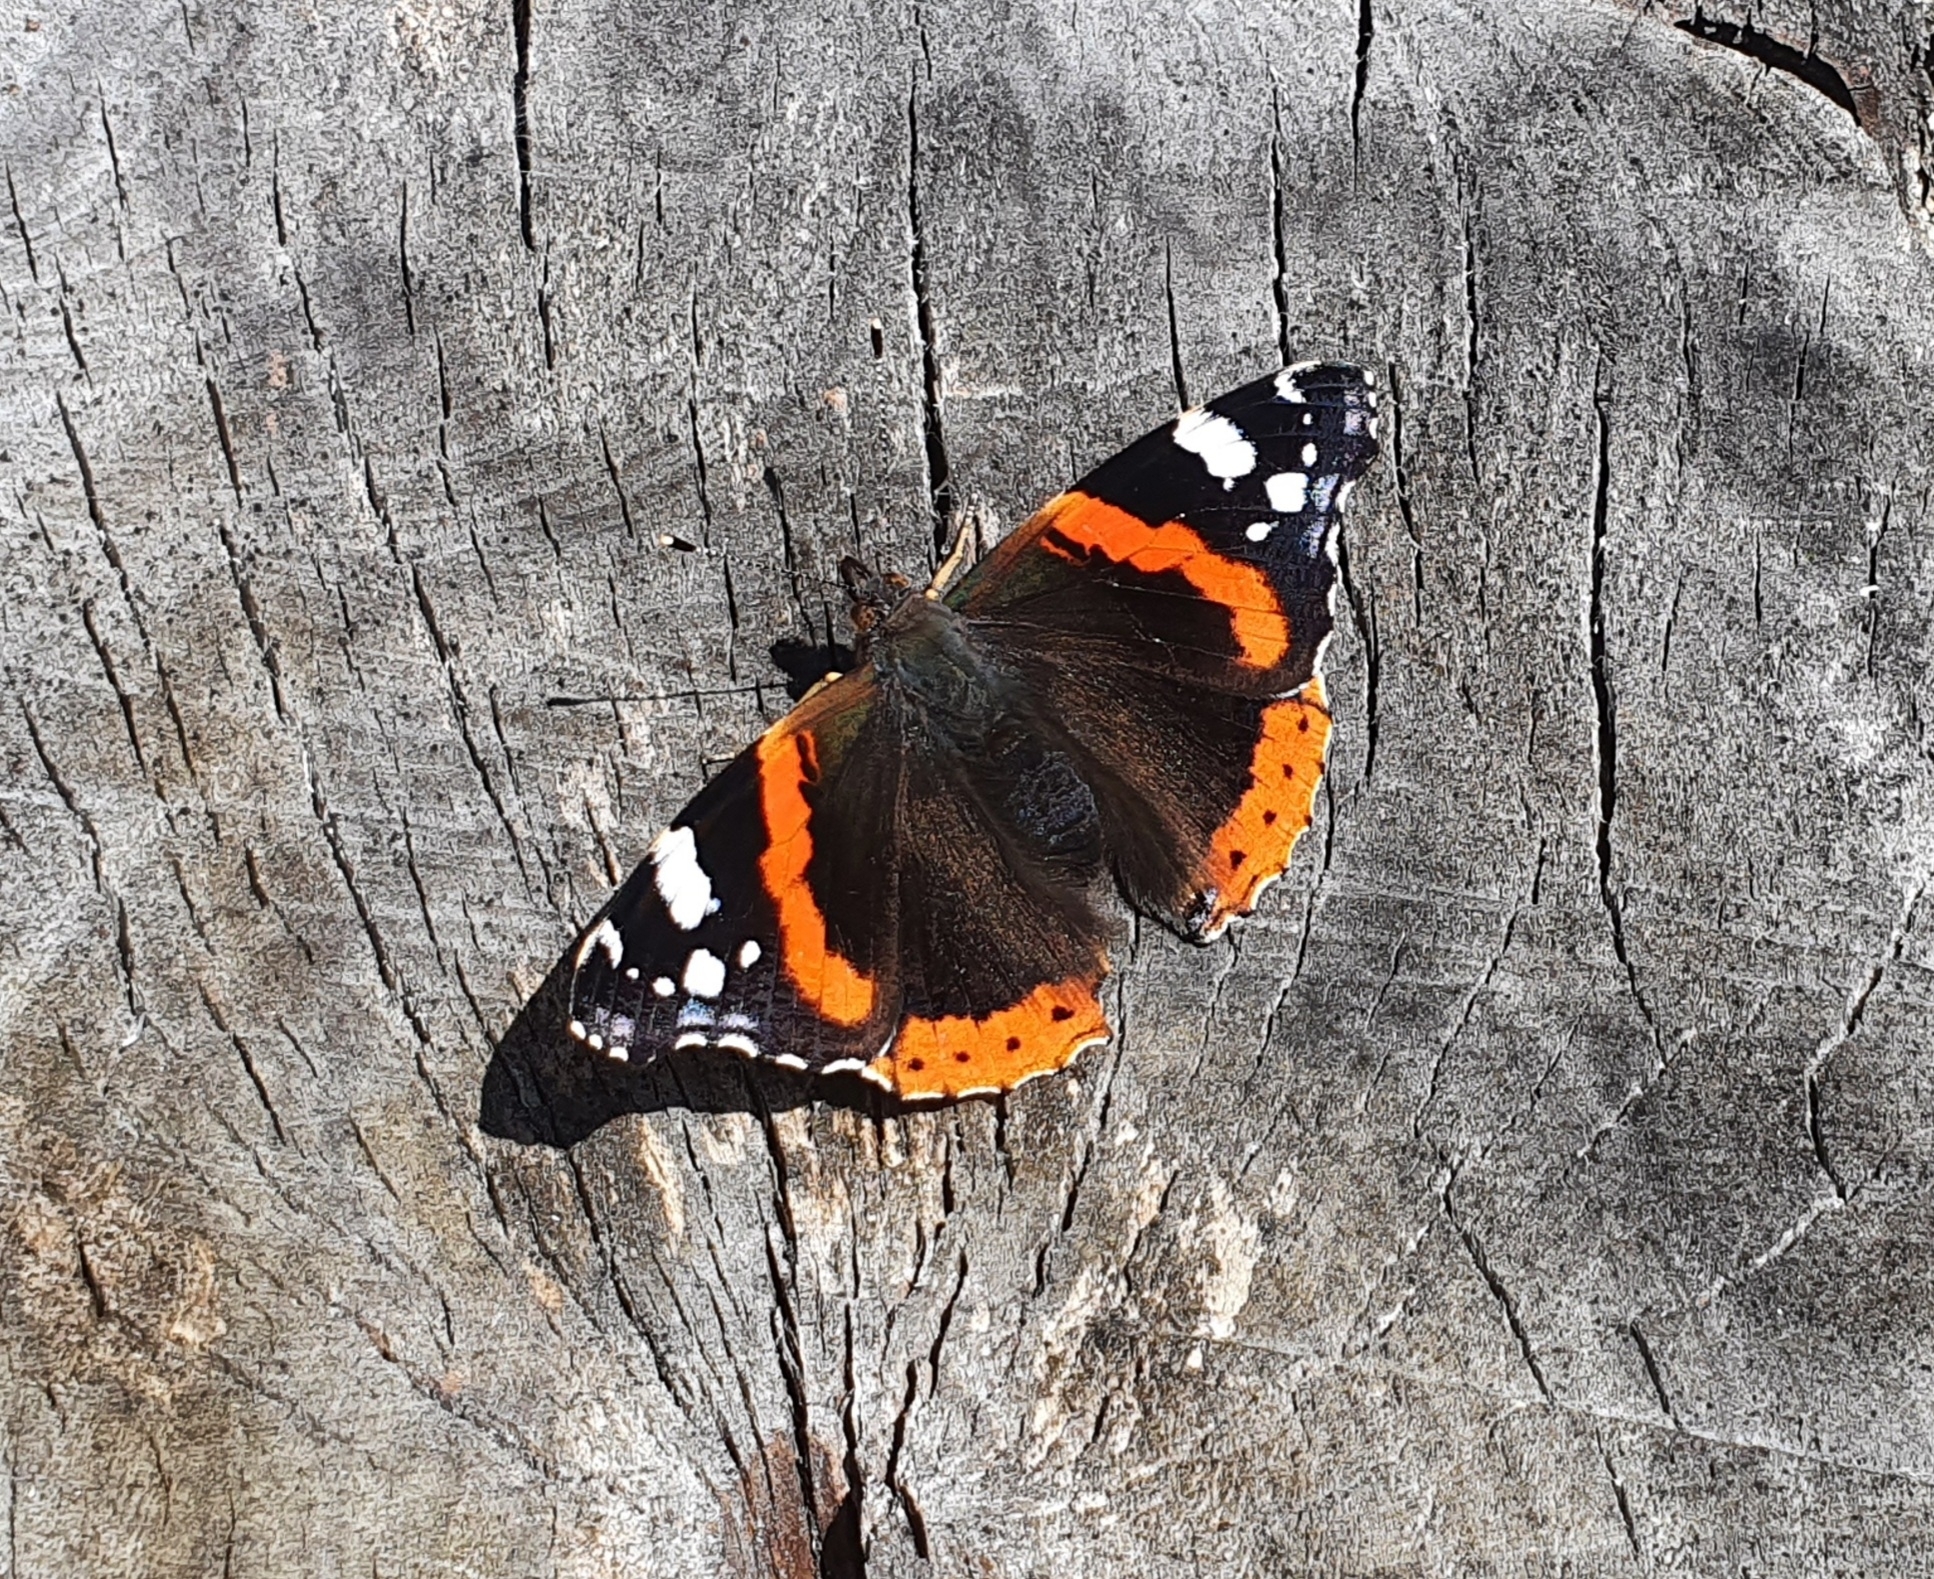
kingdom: Animalia
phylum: Arthropoda
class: Insecta
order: Lepidoptera
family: Nymphalidae
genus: Vanessa
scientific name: Vanessa atalanta
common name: Red admiral
